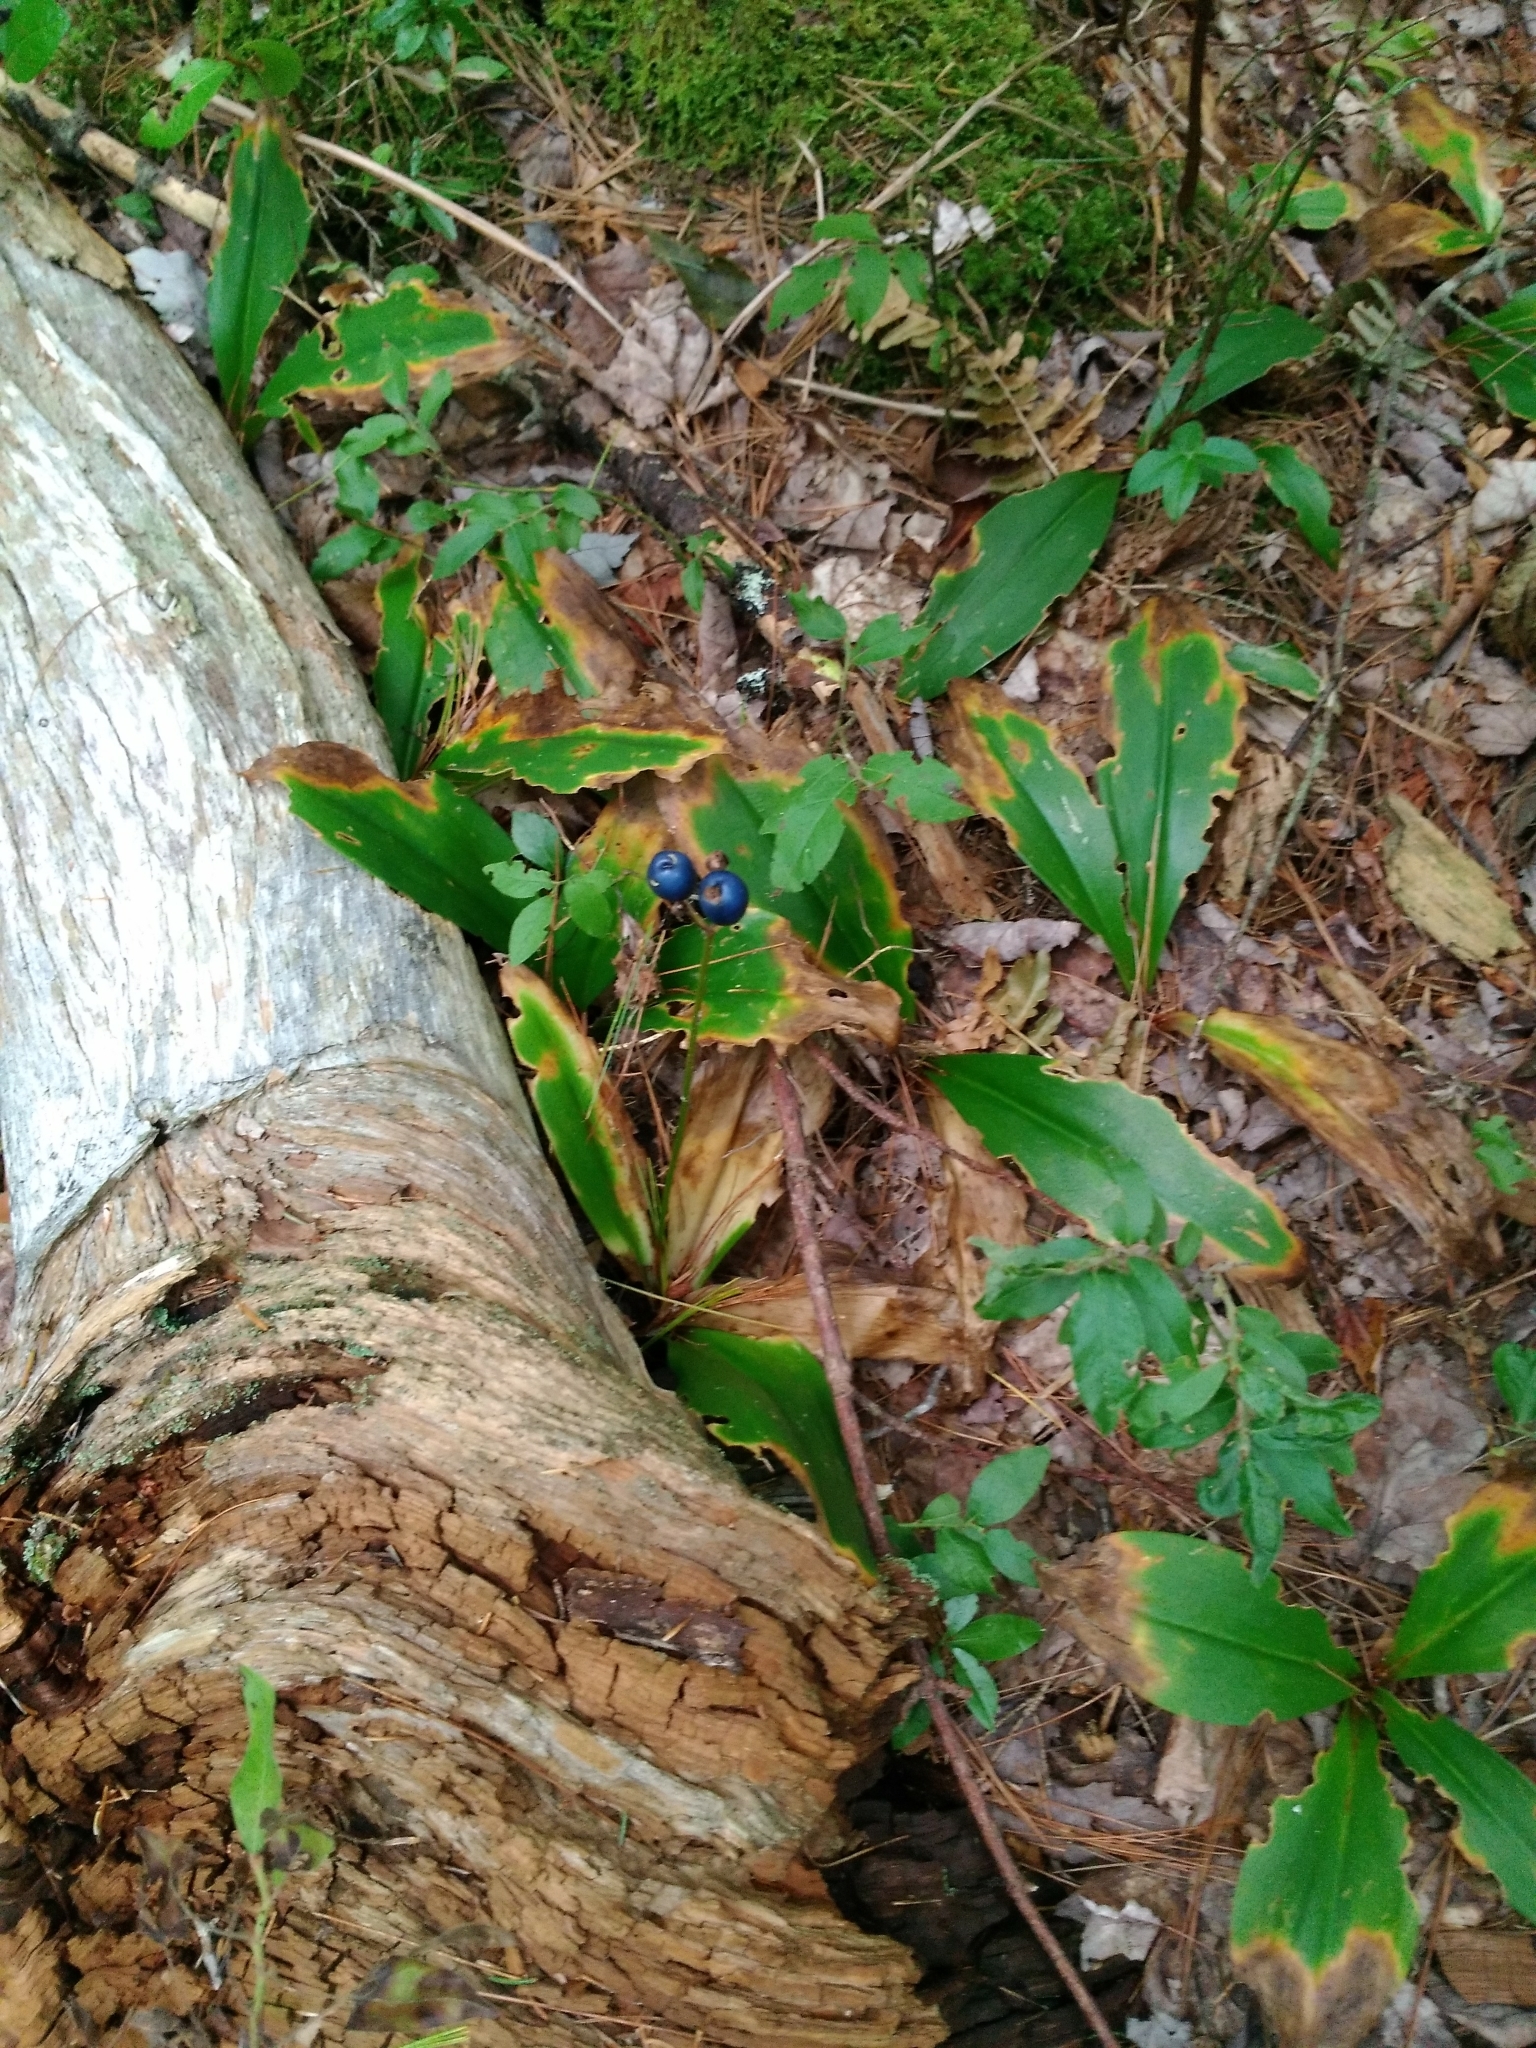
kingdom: Plantae
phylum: Tracheophyta
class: Liliopsida
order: Liliales
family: Liliaceae
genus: Clintonia
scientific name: Clintonia borealis
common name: Yellow clintonia
